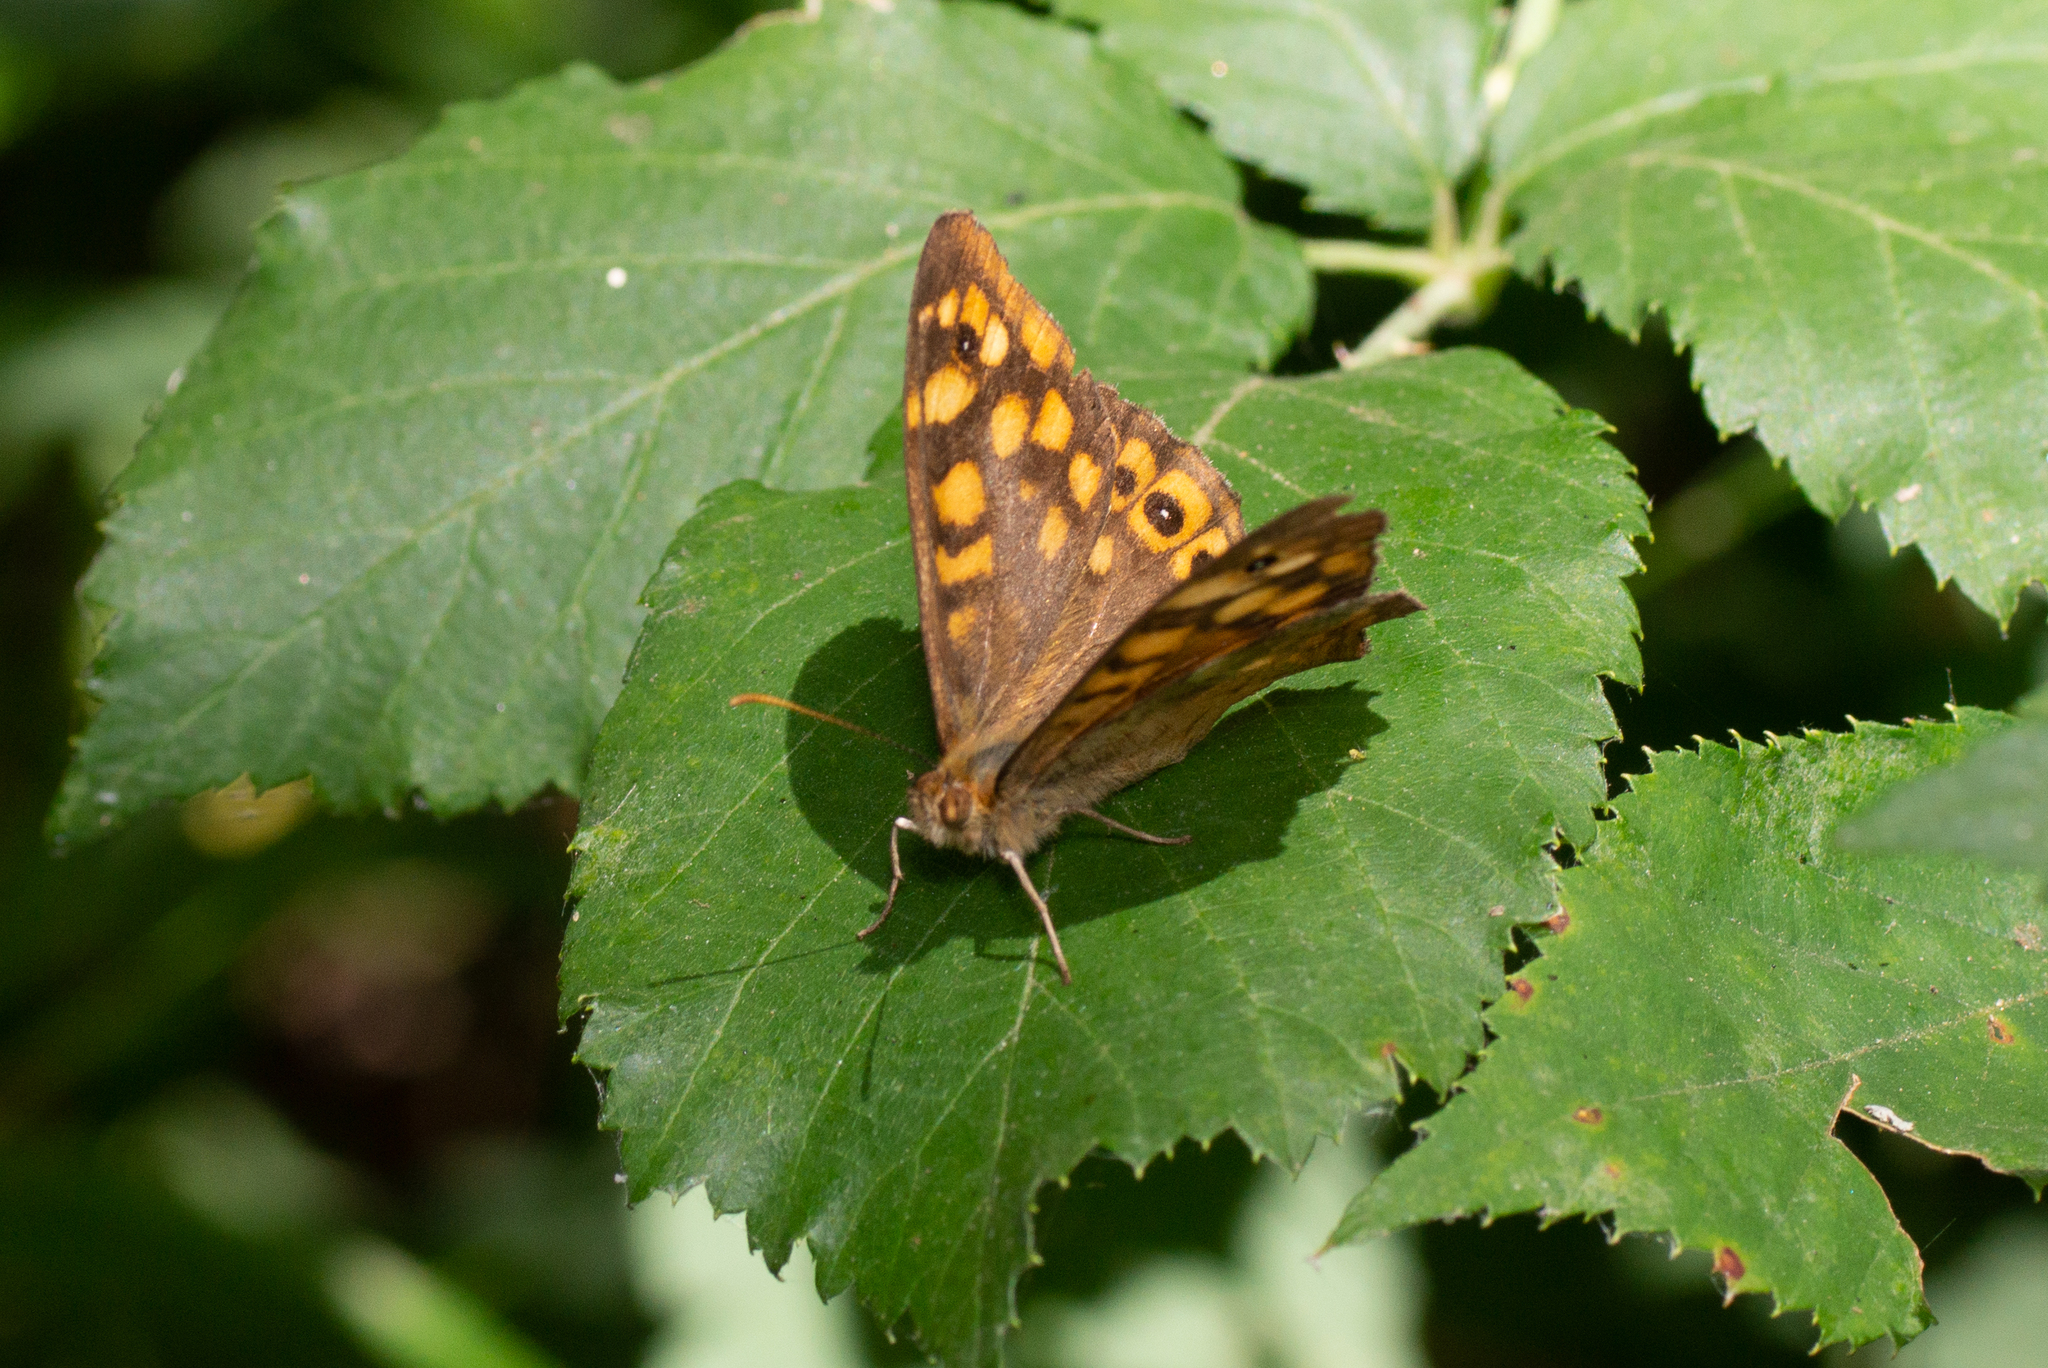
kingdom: Animalia
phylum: Arthropoda
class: Insecta
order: Lepidoptera
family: Nymphalidae
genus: Pararge
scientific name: Pararge aegeria
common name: Speckled wood
